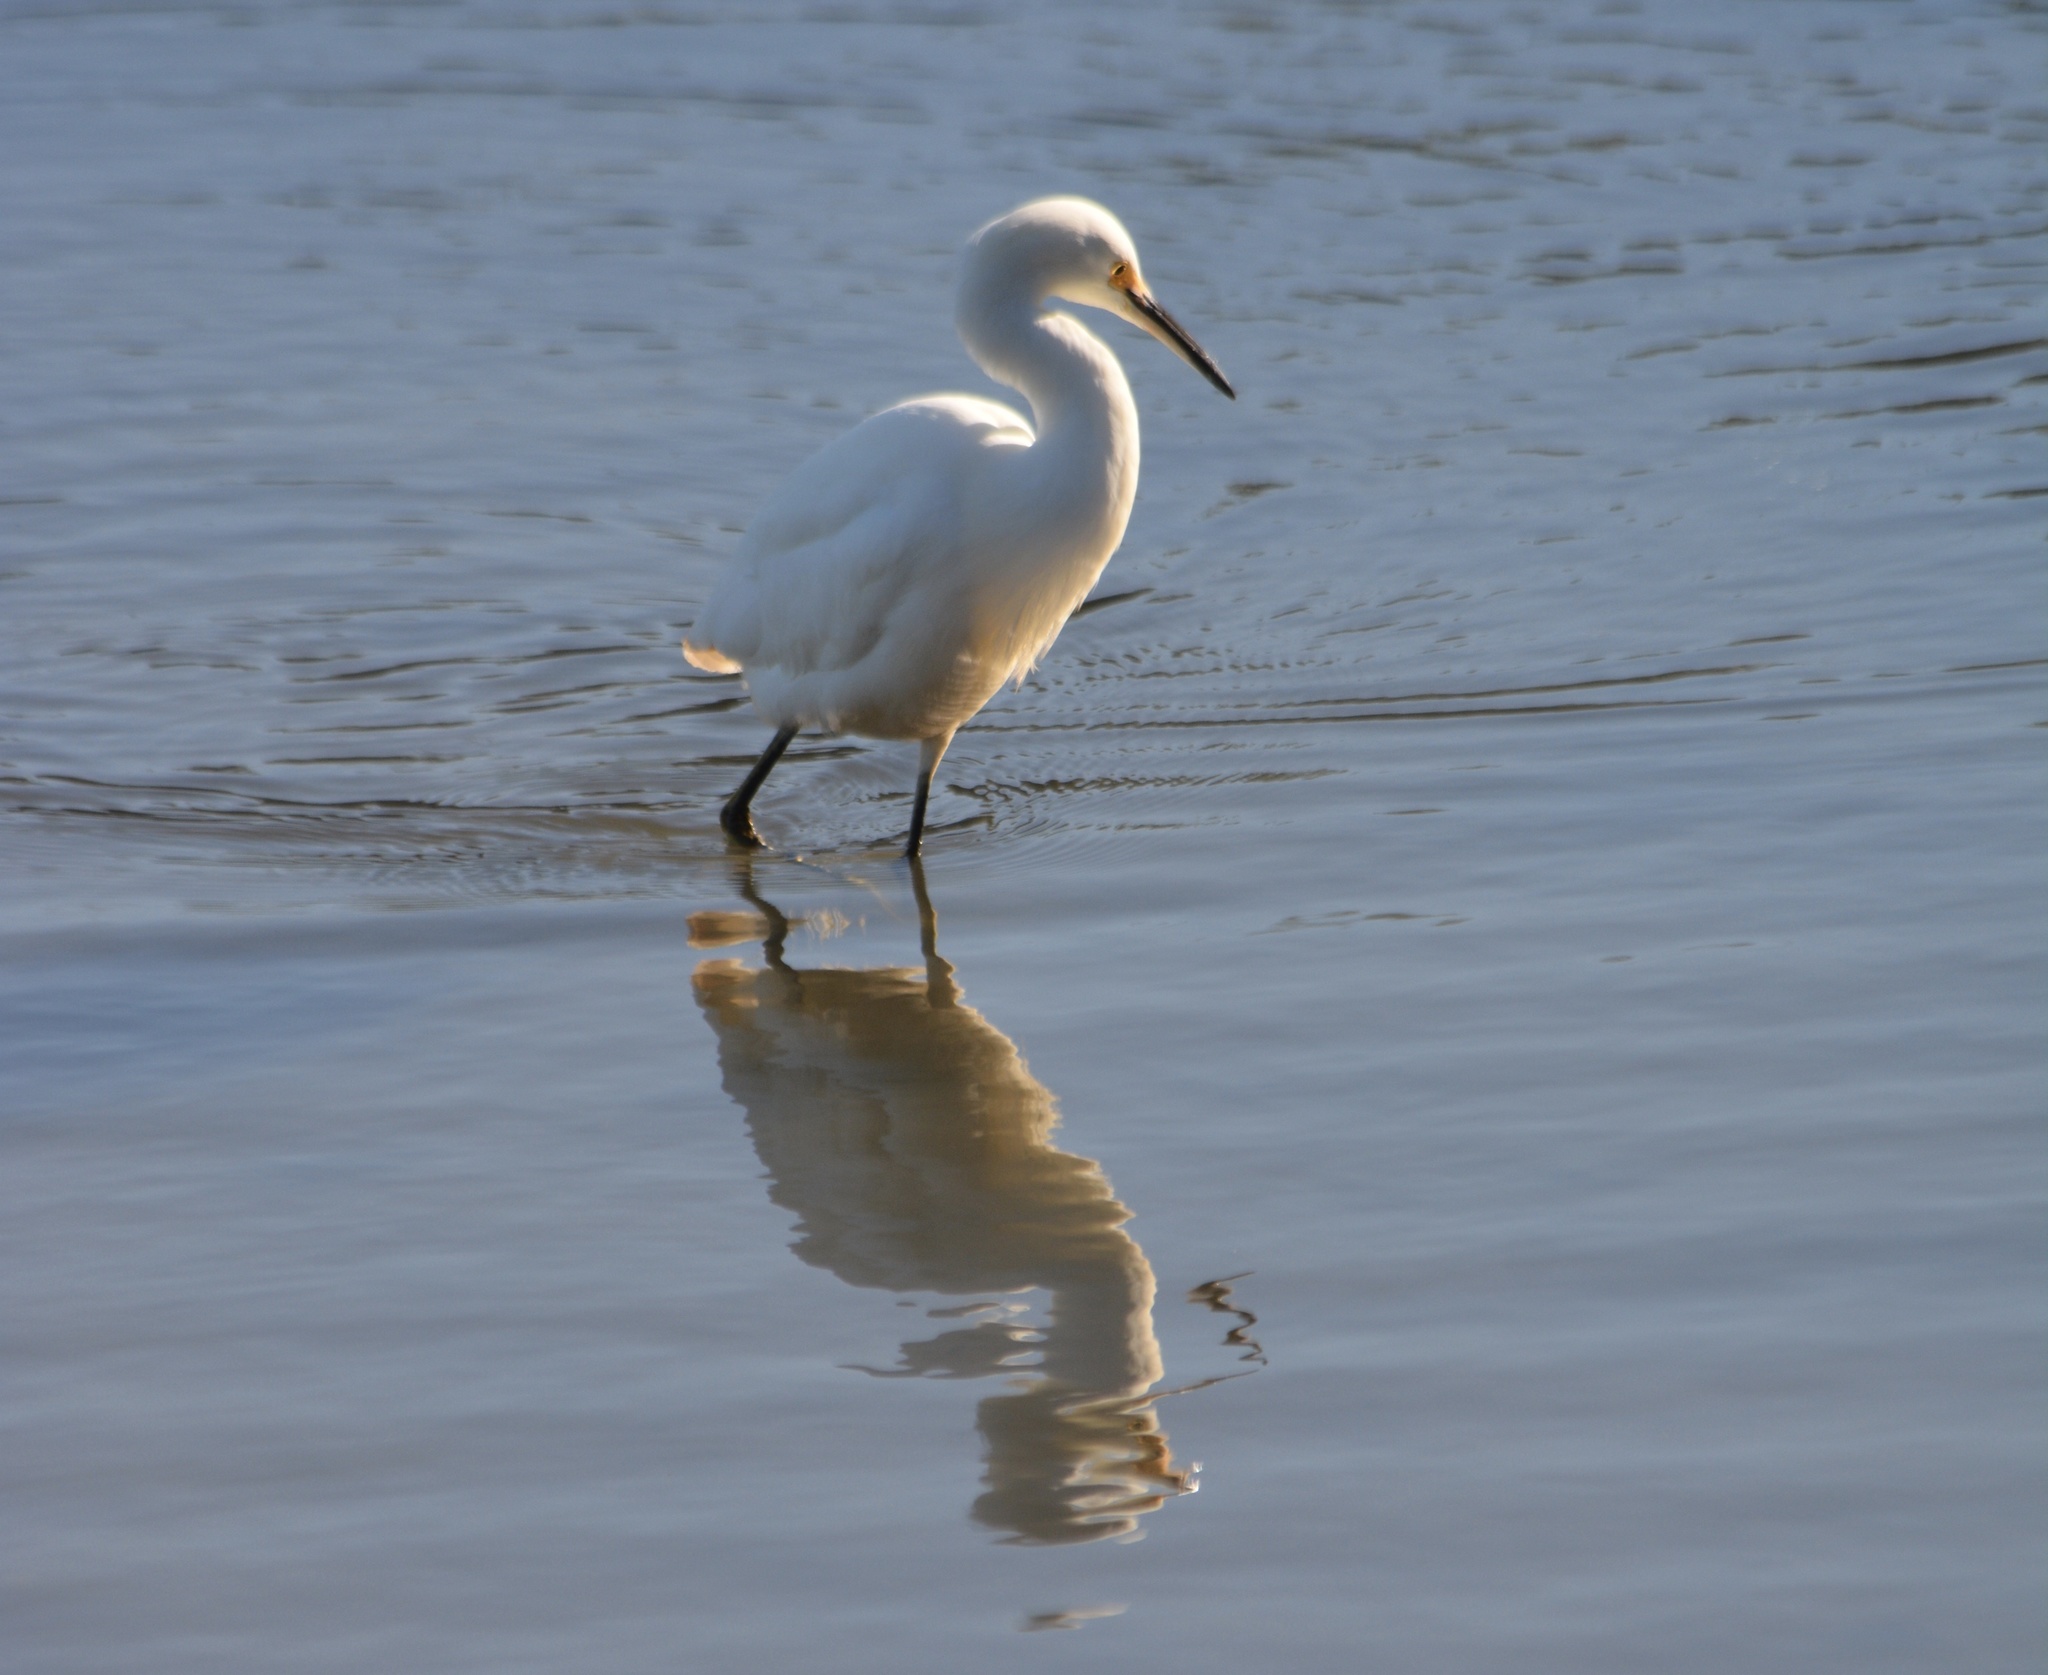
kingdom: Animalia
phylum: Chordata
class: Aves
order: Pelecaniformes
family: Ardeidae
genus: Egretta
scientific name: Egretta thula
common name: Snowy egret
